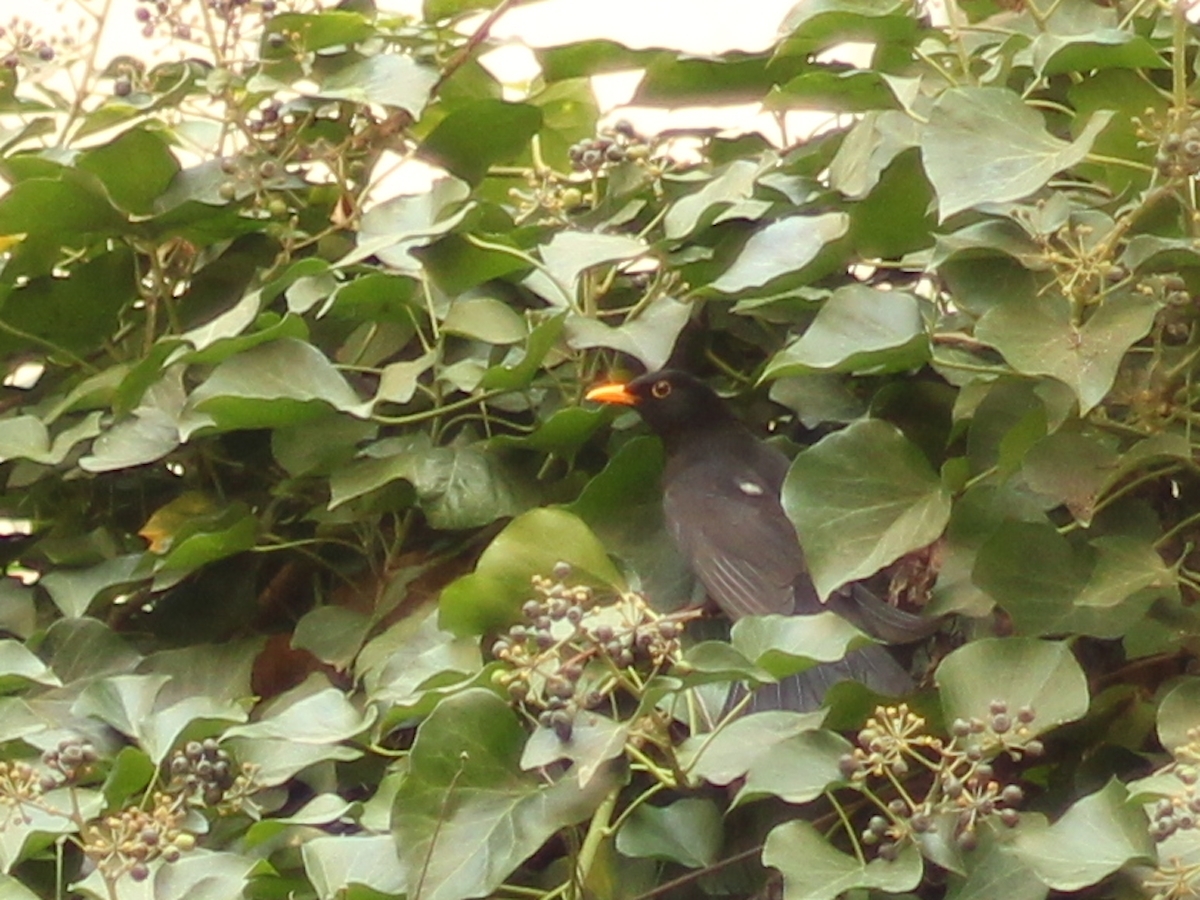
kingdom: Animalia
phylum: Chordata
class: Aves
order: Passeriformes
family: Turdidae
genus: Turdus
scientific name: Turdus merula
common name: Common blackbird
